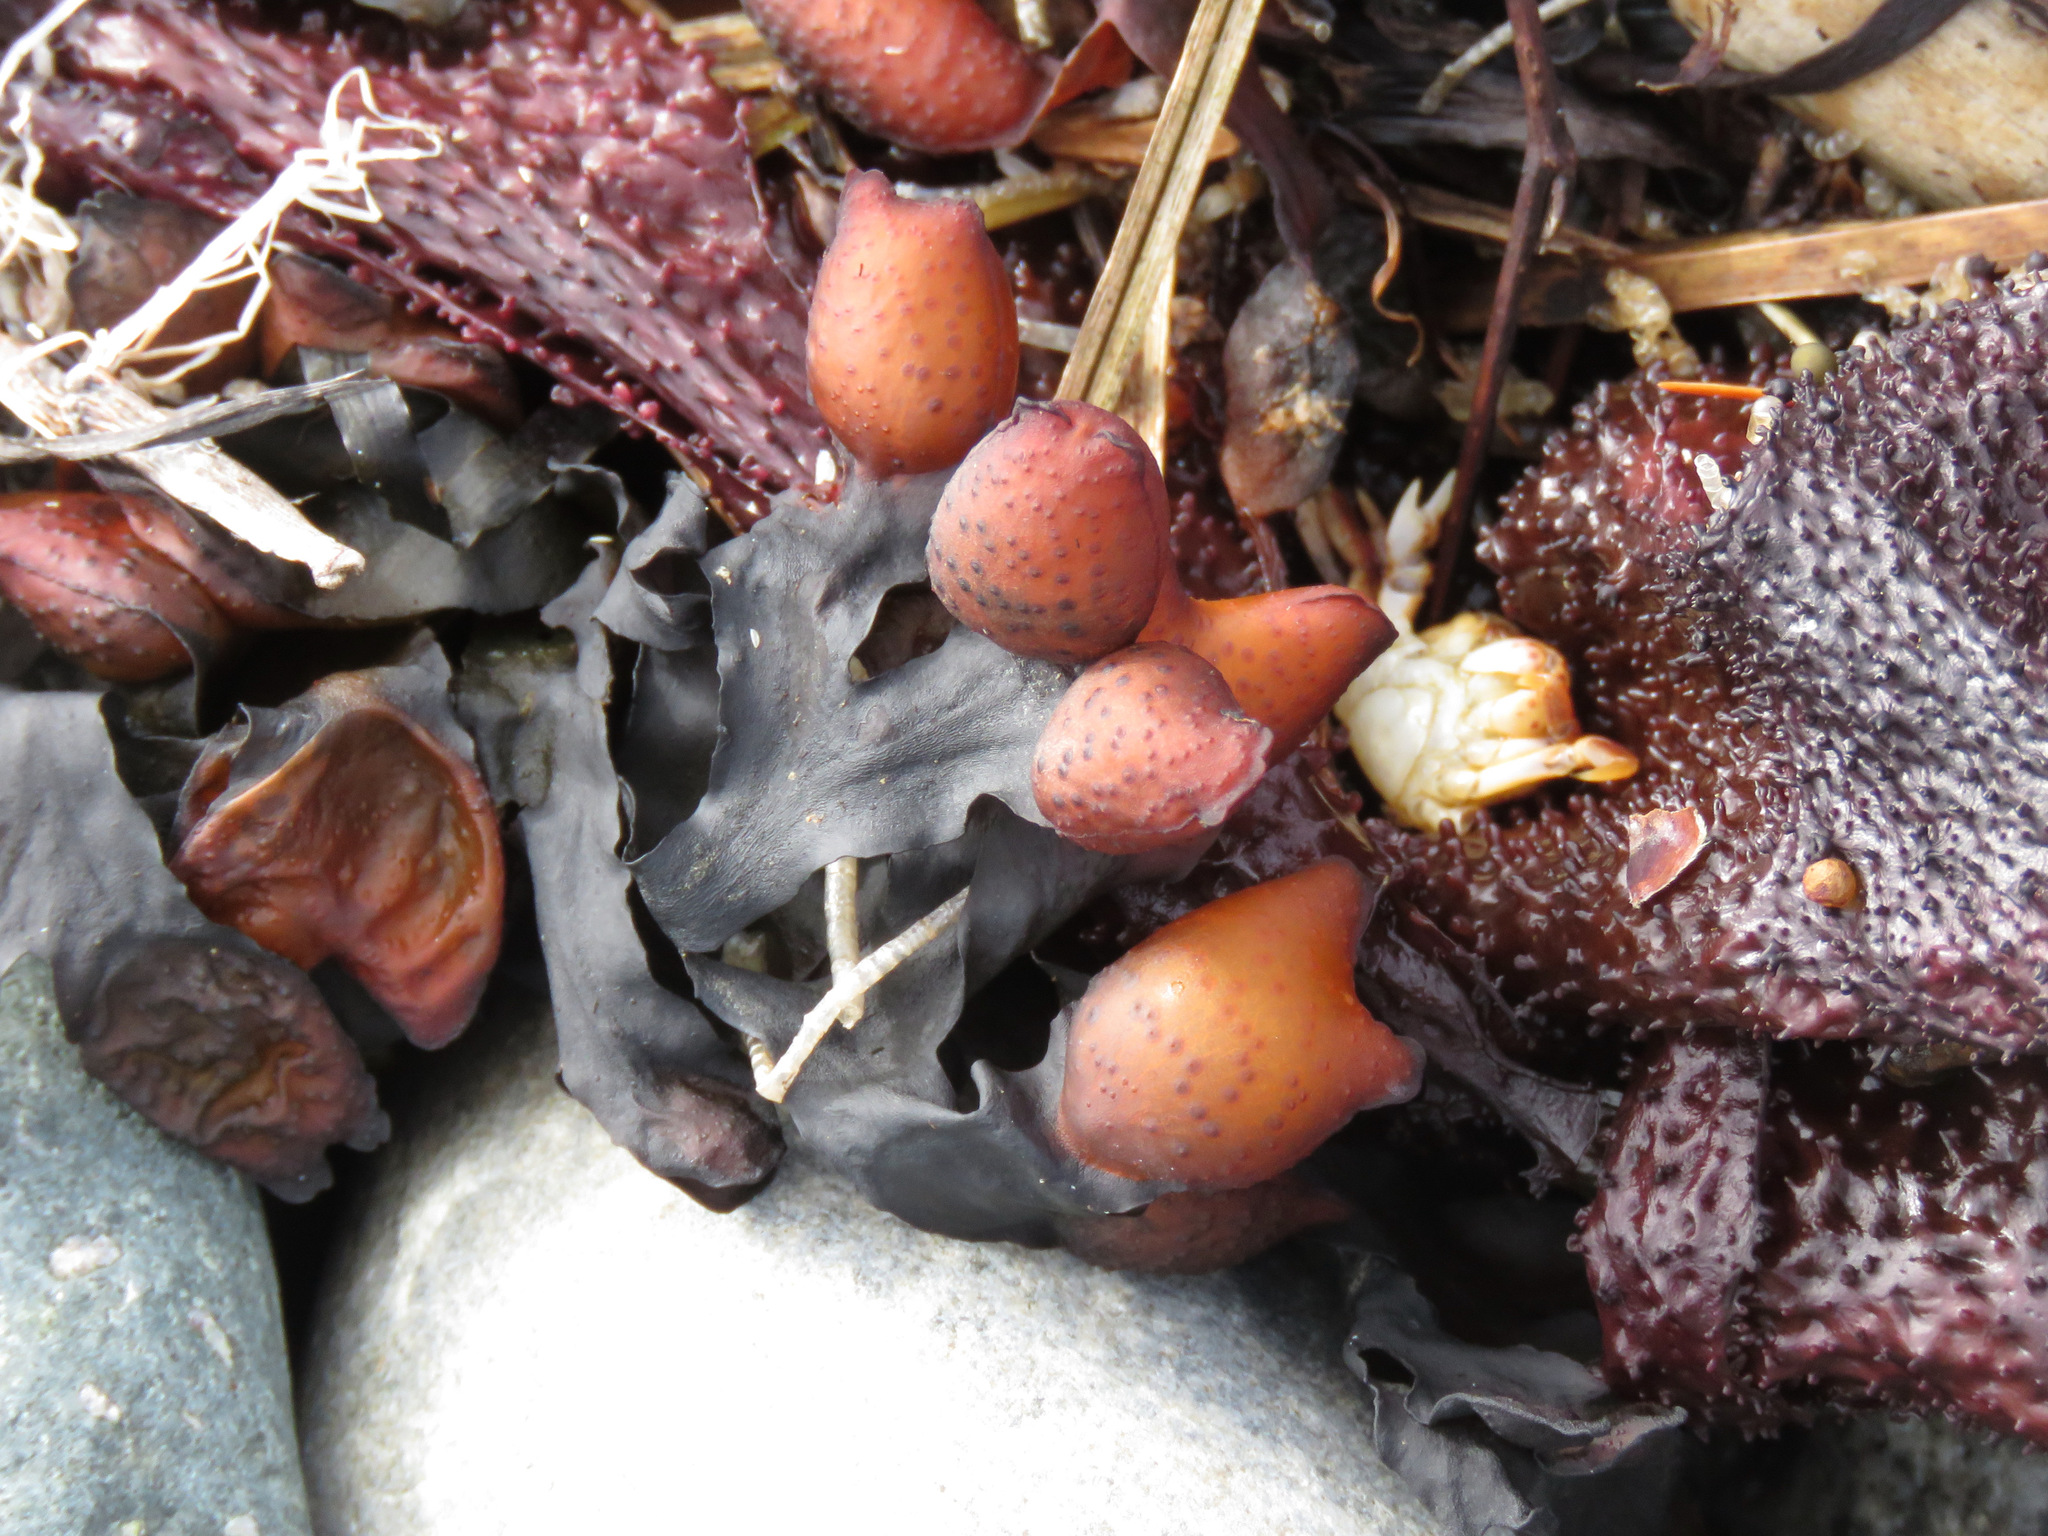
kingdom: Chromista
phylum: Ochrophyta
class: Phaeophyceae
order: Fucales
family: Fucaceae
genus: Fucus
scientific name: Fucus distichus
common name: Rockweed
